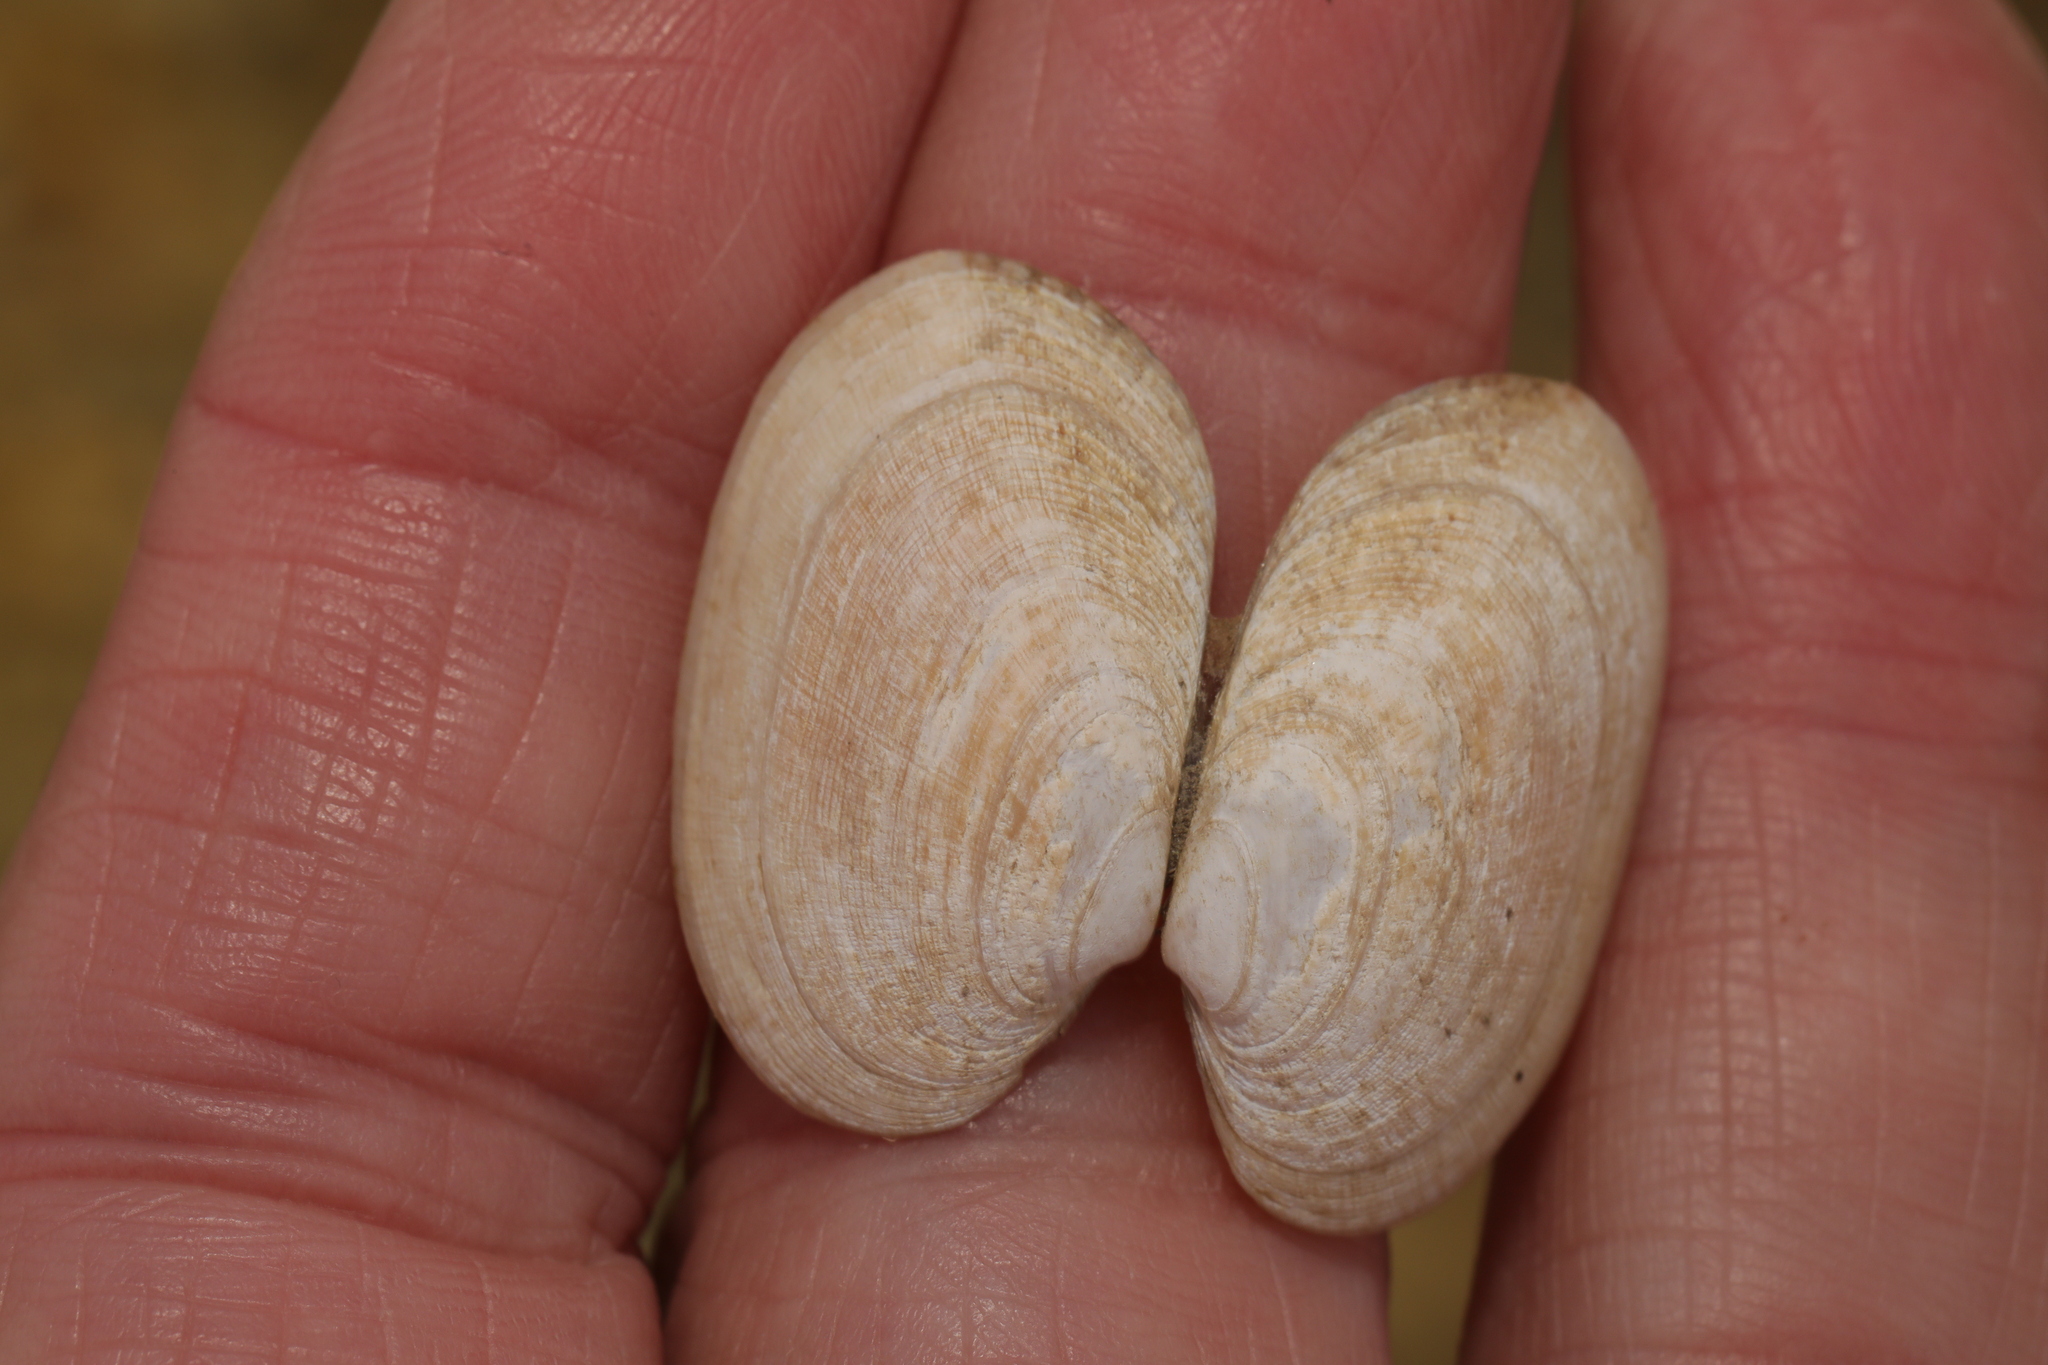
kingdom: Animalia
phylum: Mollusca
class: Bivalvia
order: Venerida
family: Veneridae
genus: Venerupis
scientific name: Venerupis corrugata
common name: Pullet carpet shell
